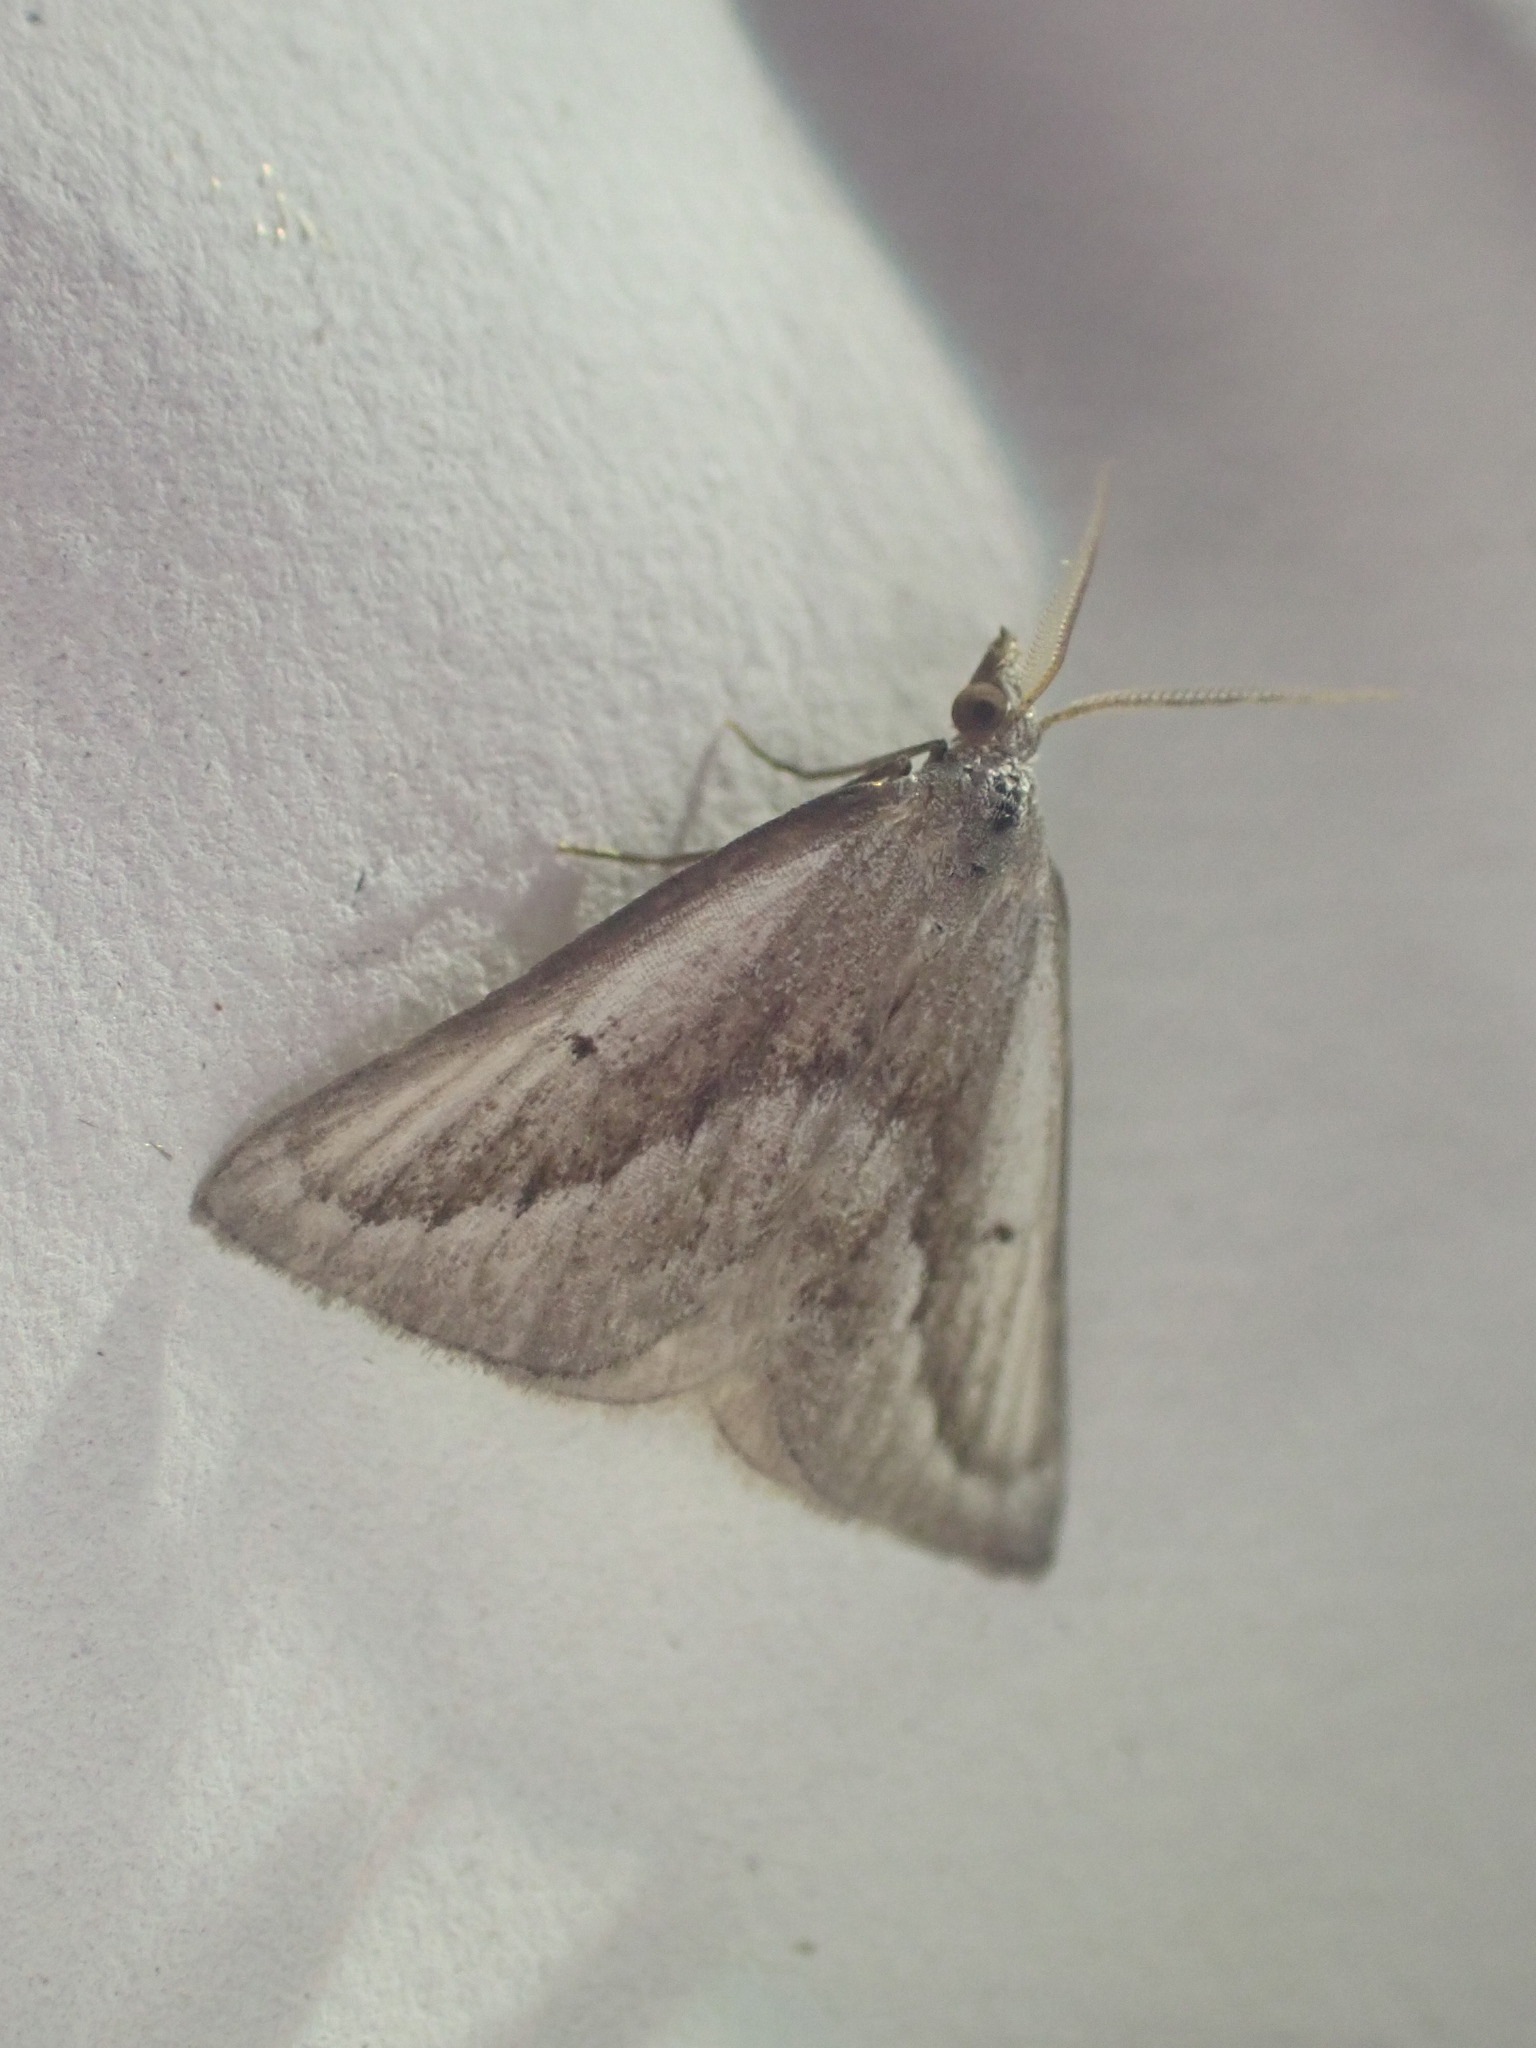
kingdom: Animalia
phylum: Arthropoda
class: Insecta
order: Lepidoptera
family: Geometridae
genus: Adeixis
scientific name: Adeixis griseata
